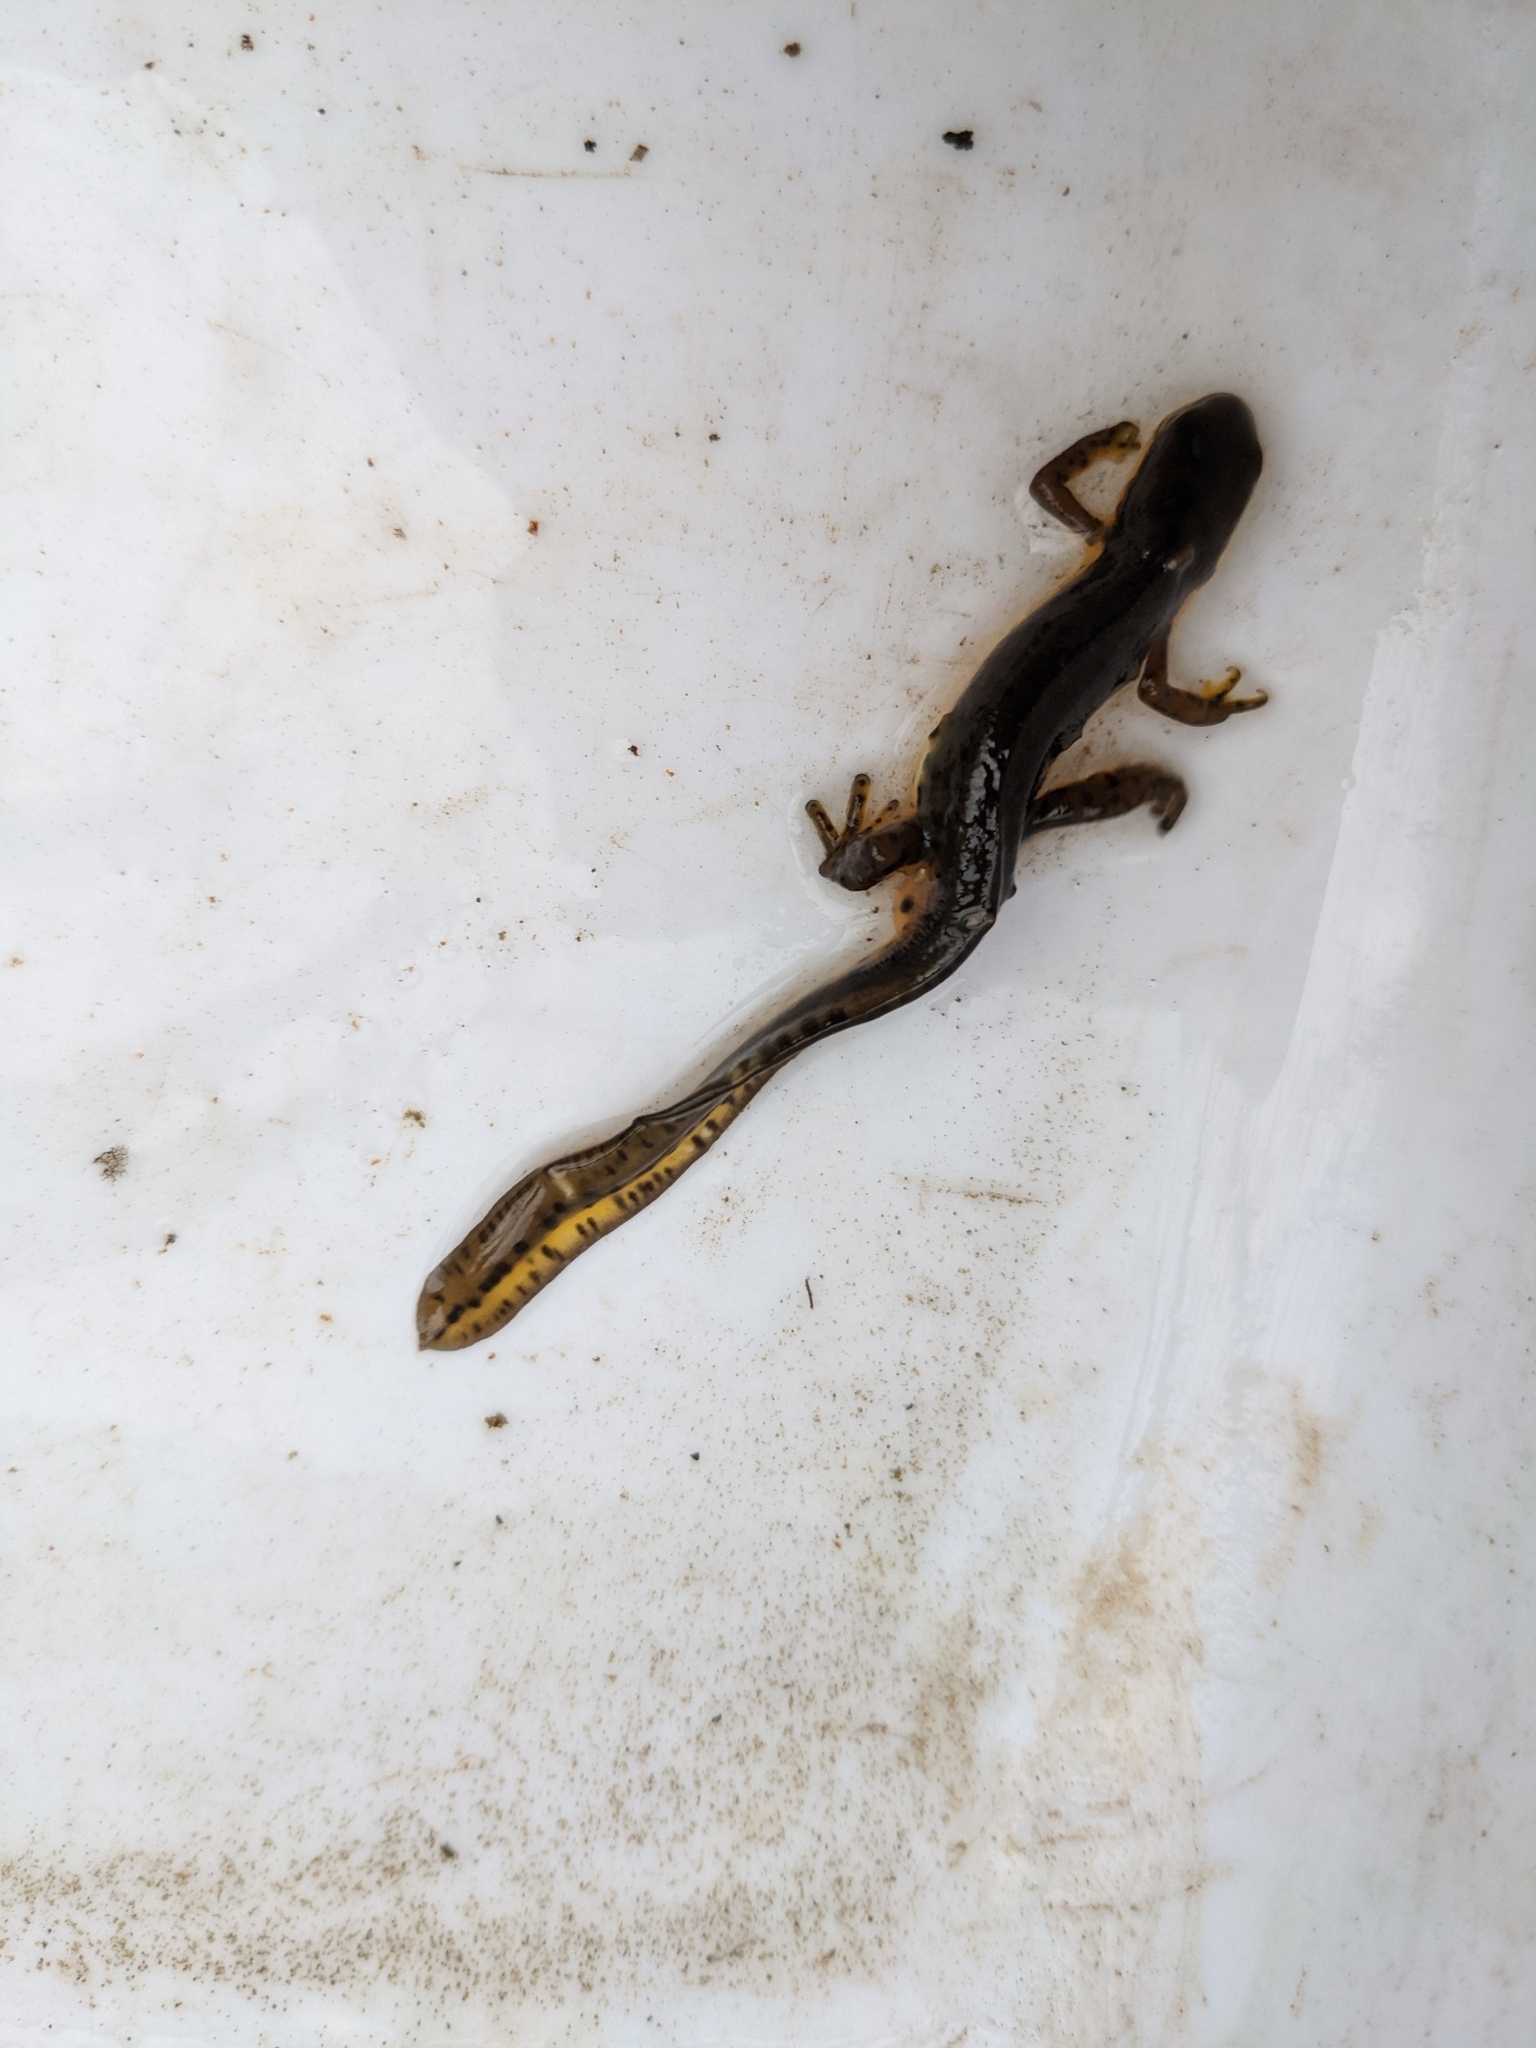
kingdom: Animalia
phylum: Chordata
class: Amphibia
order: Caudata
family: Salamandridae
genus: Notophthalmus
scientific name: Notophthalmus viridescens
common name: Eastern newt
